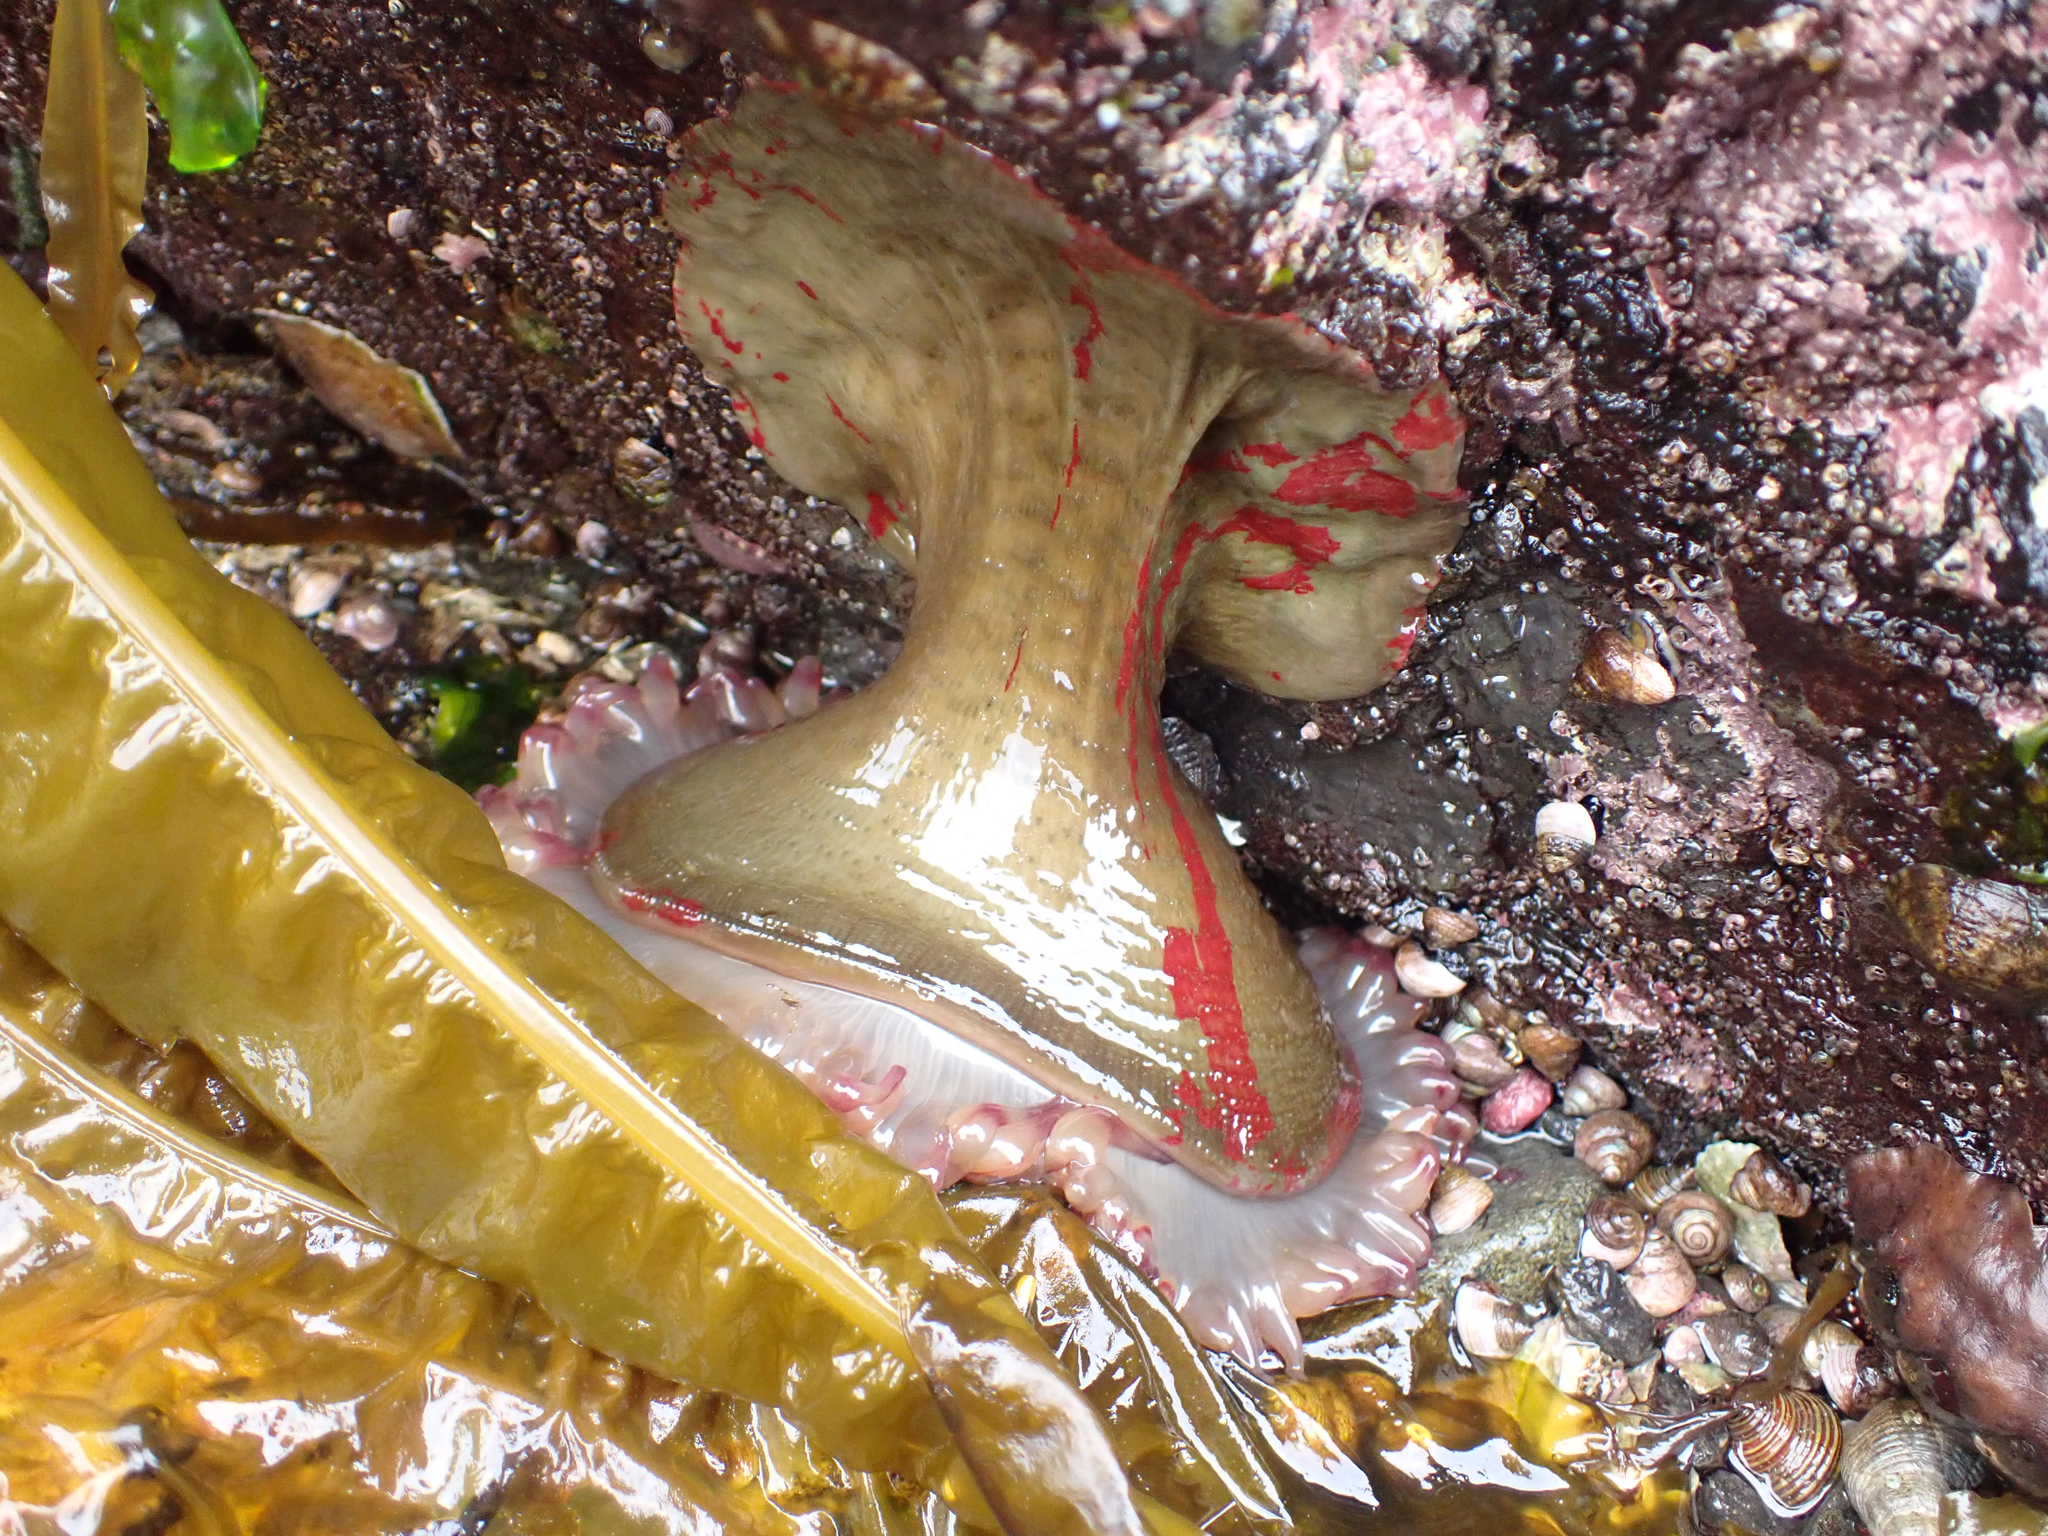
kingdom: Animalia
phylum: Cnidaria
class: Anthozoa
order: Actiniaria
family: Actiniidae
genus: Urticina
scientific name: Urticina grebelnyi
